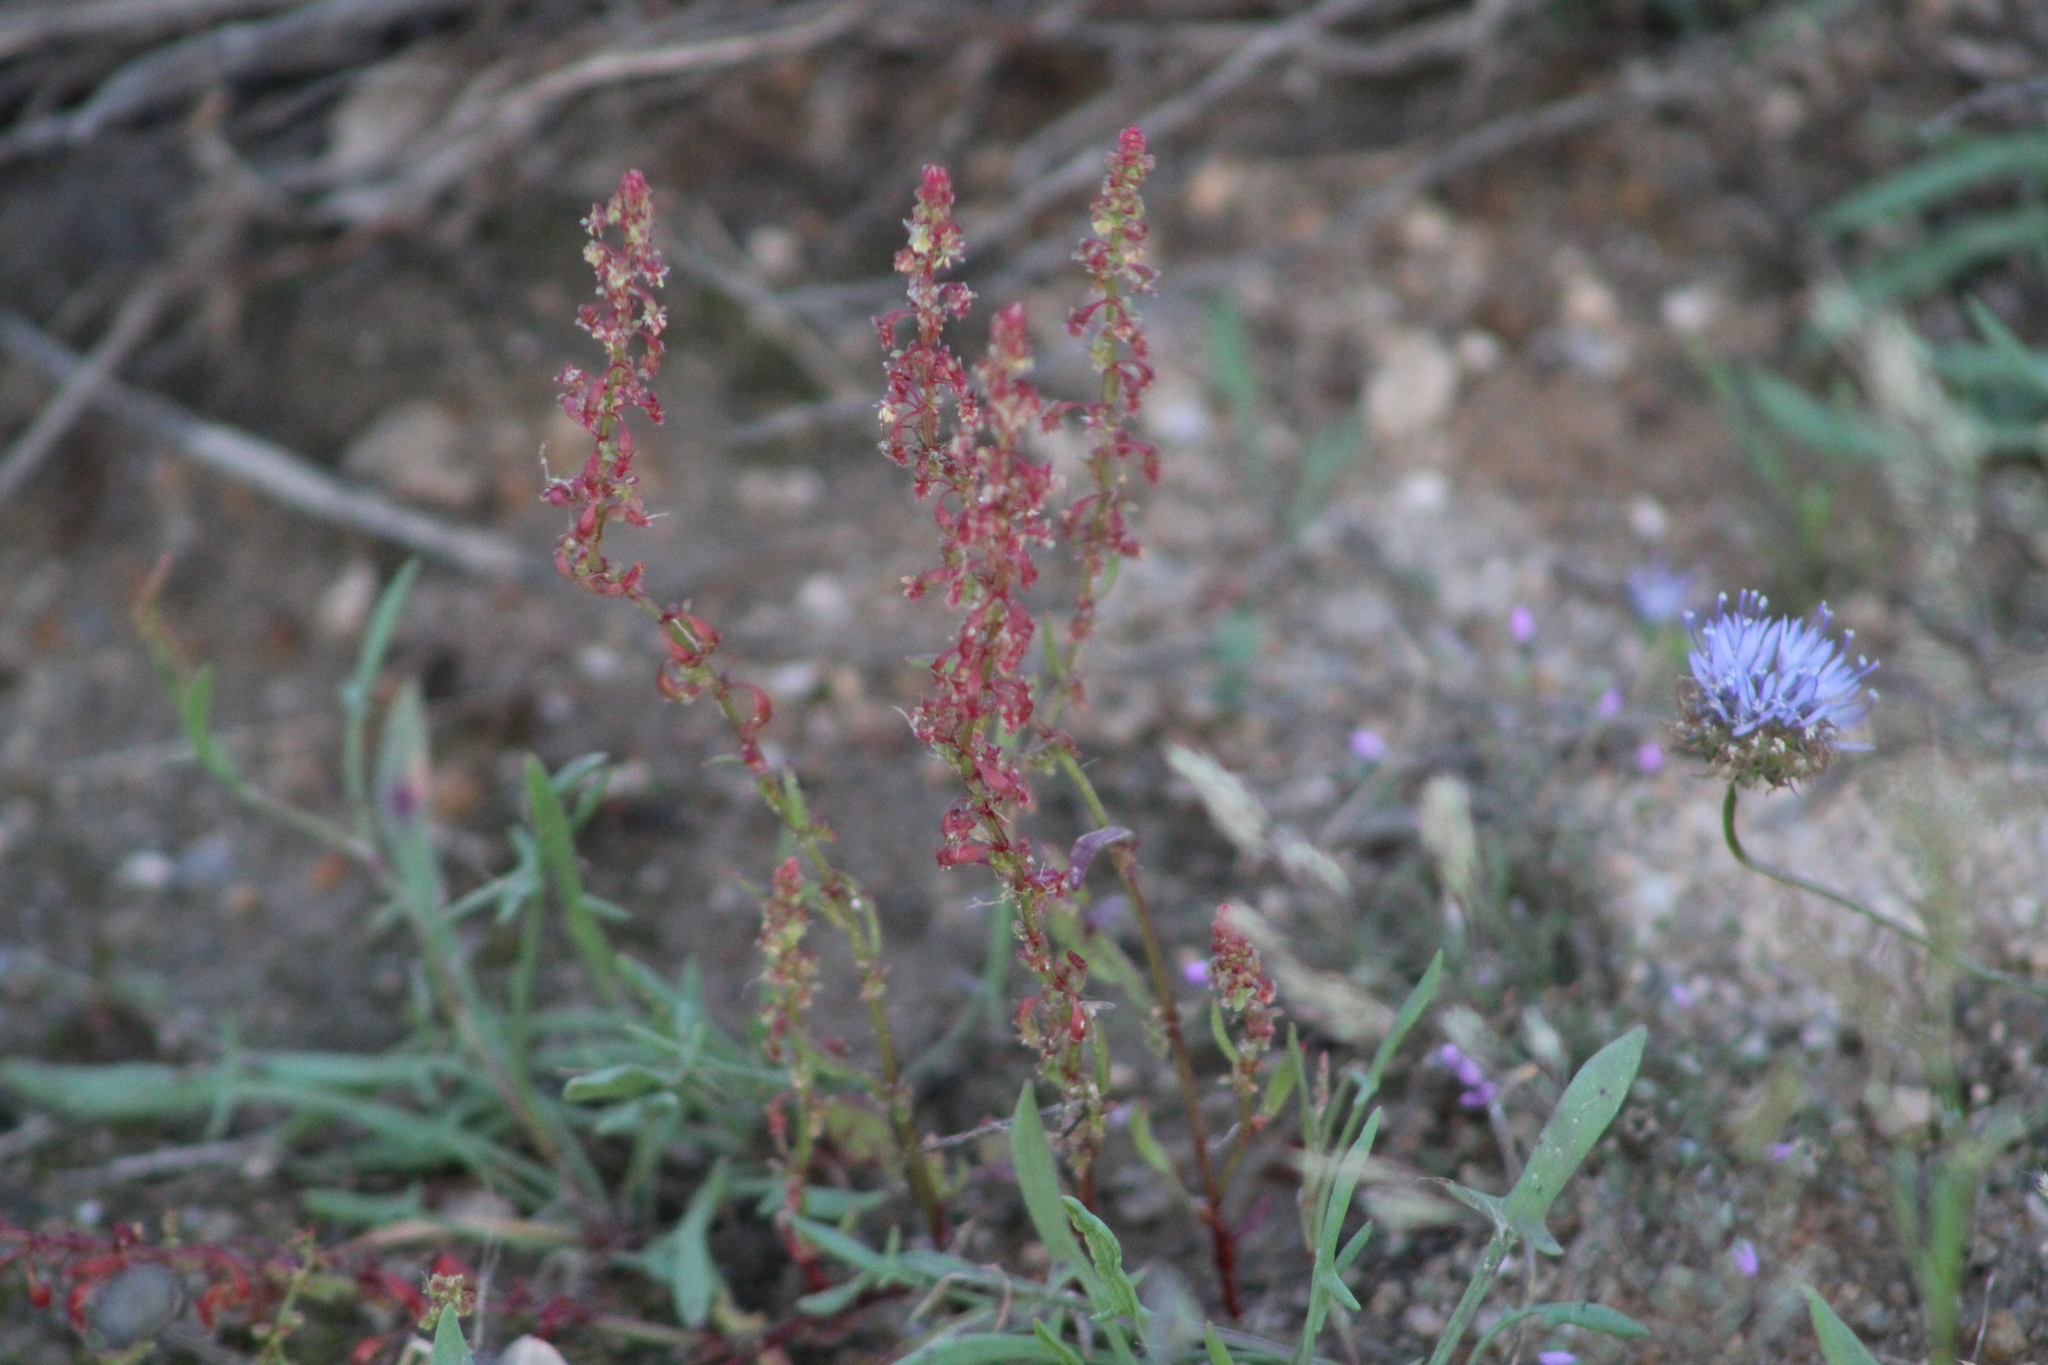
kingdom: Plantae
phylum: Tracheophyta
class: Magnoliopsida
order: Caryophyllales
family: Polygonaceae
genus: Rumex
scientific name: Rumex bucephalophorus
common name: Red dock
